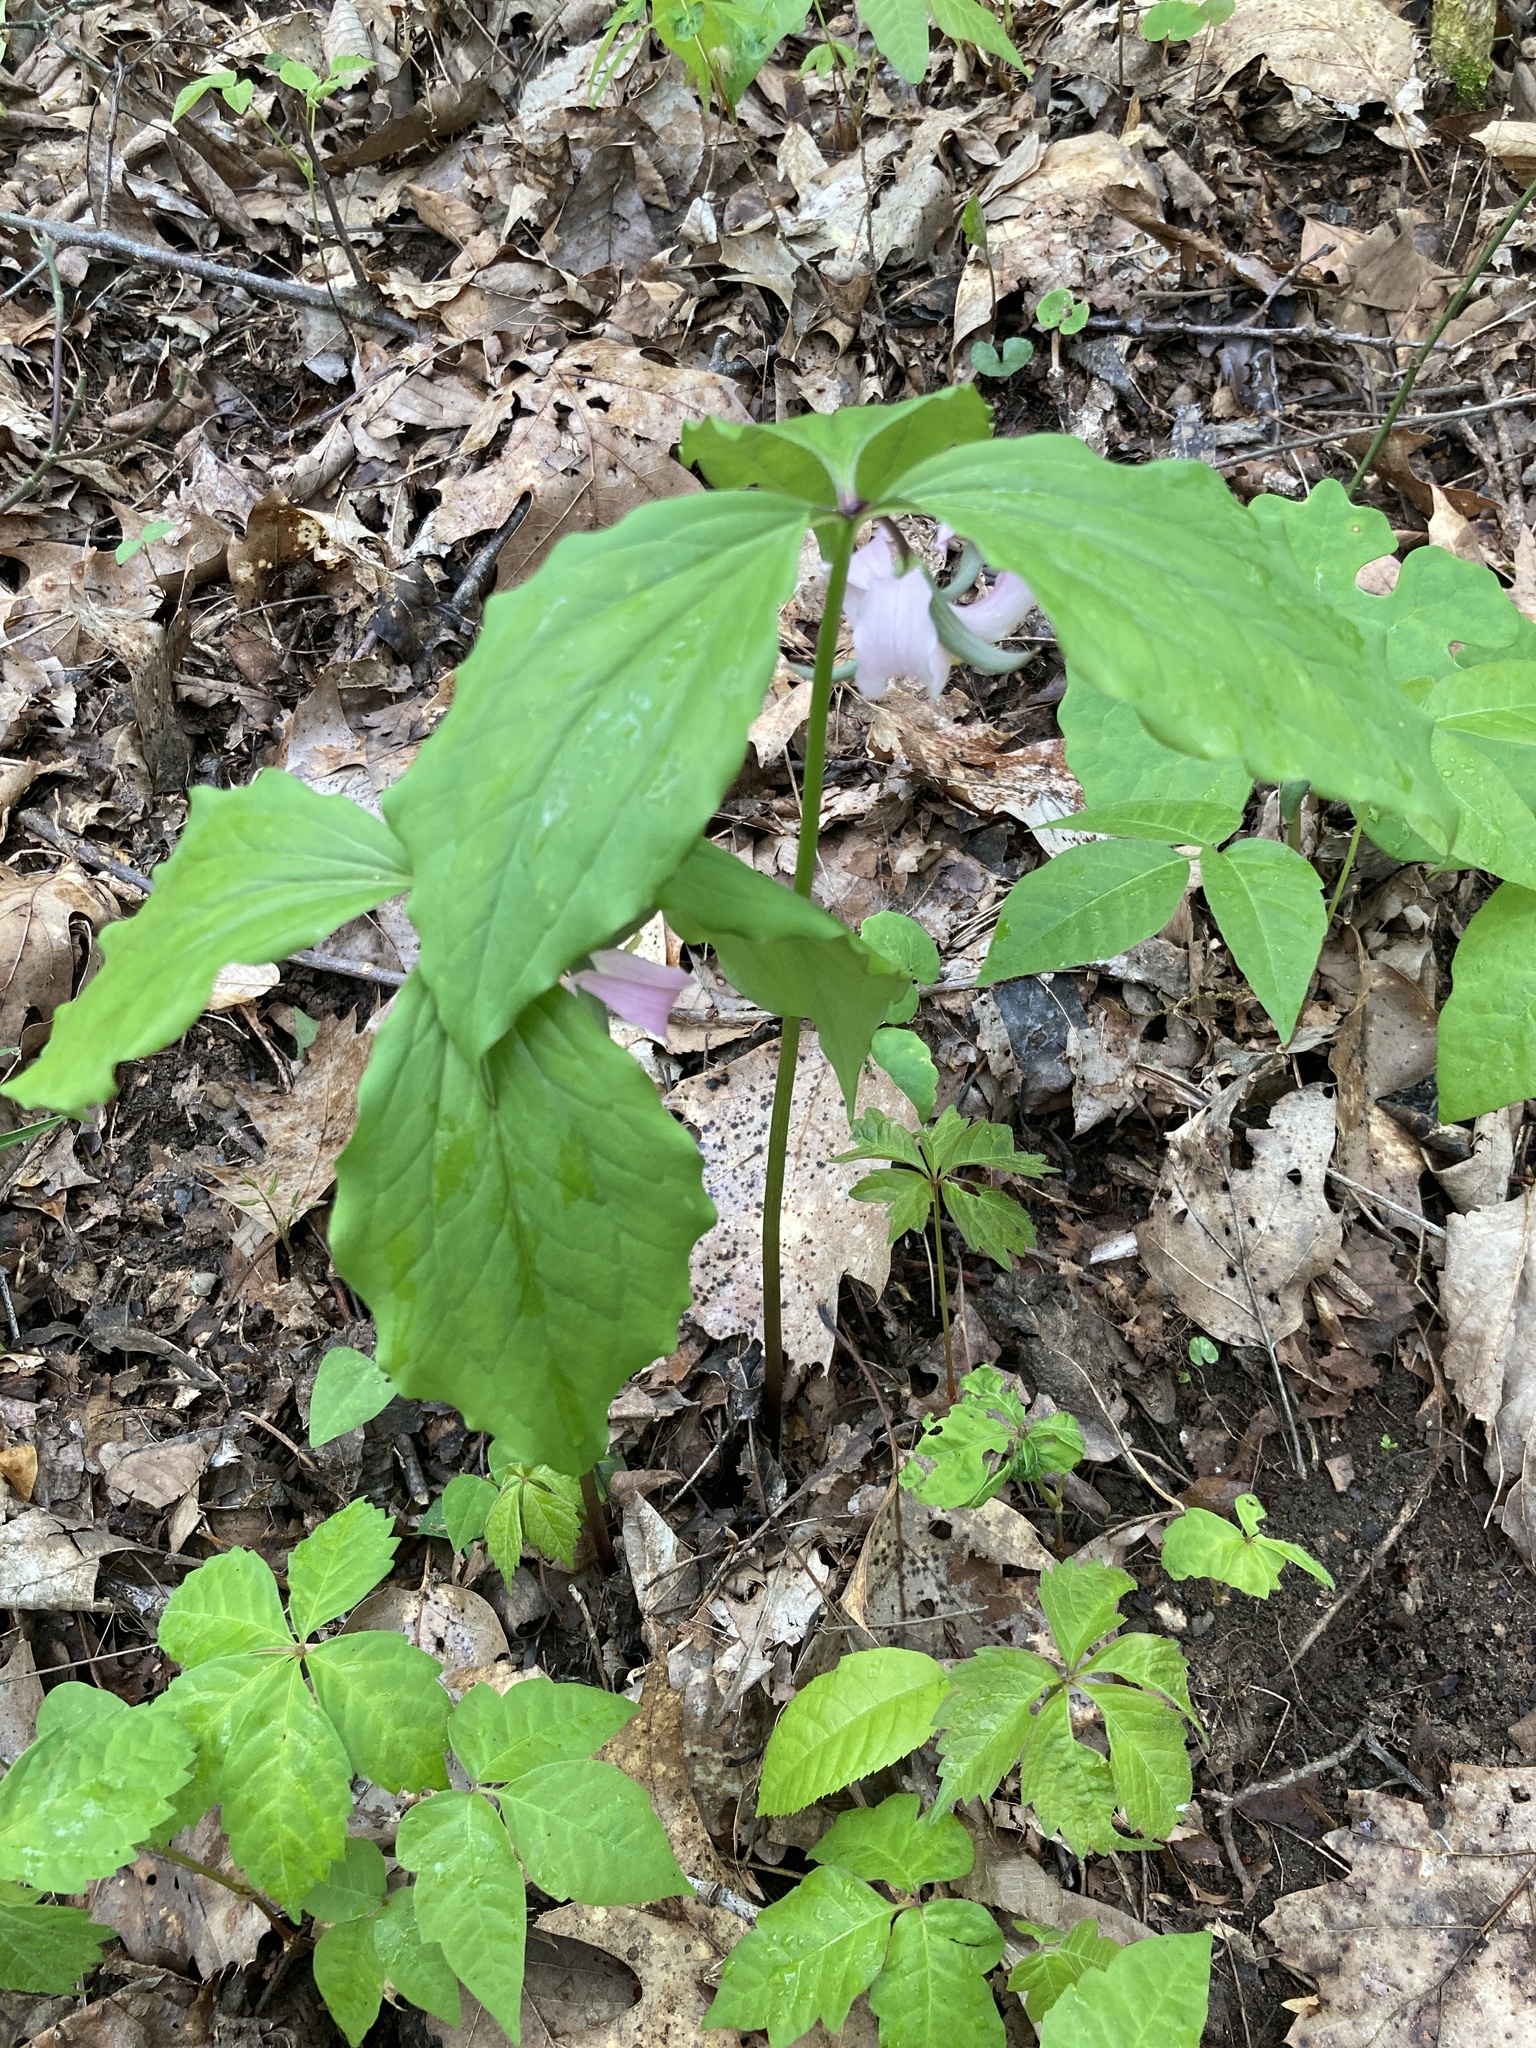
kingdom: Plantae
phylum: Tracheophyta
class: Liliopsida
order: Liliales
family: Melanthiaceae
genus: Trillium
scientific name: Trillium catesbaei
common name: Bashful trillium
